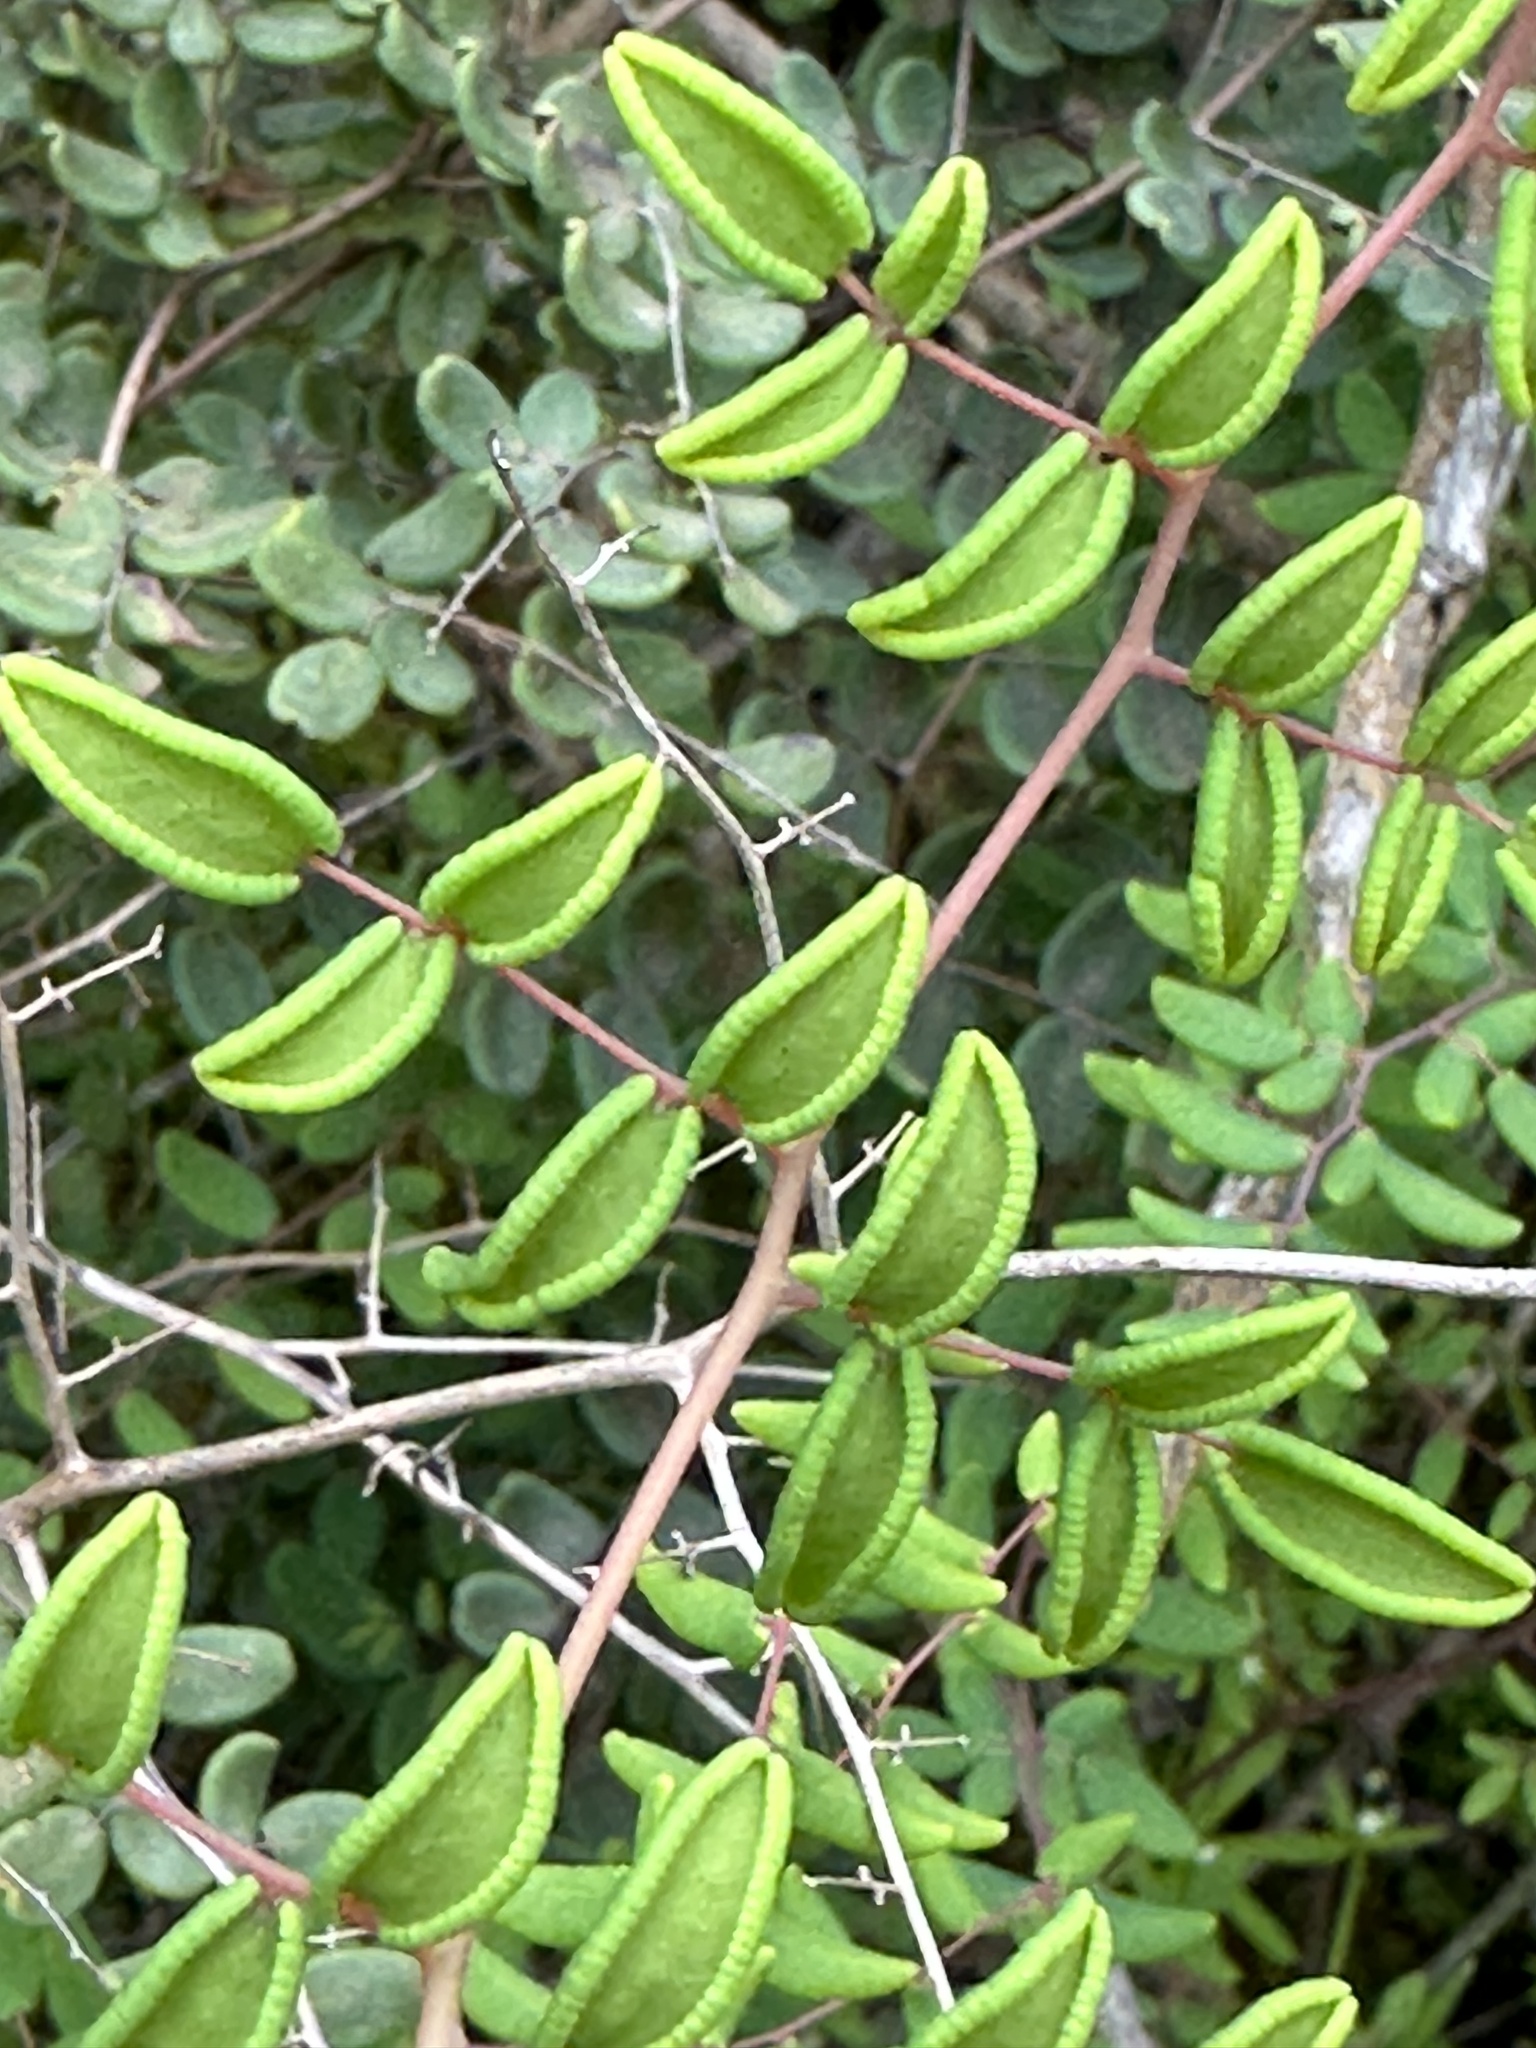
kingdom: Plantae
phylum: Tracheophyta
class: Polypodiopsida
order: Polypodiales
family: Pteridaceae
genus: Pellaea
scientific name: Pellaea andromedifolia
